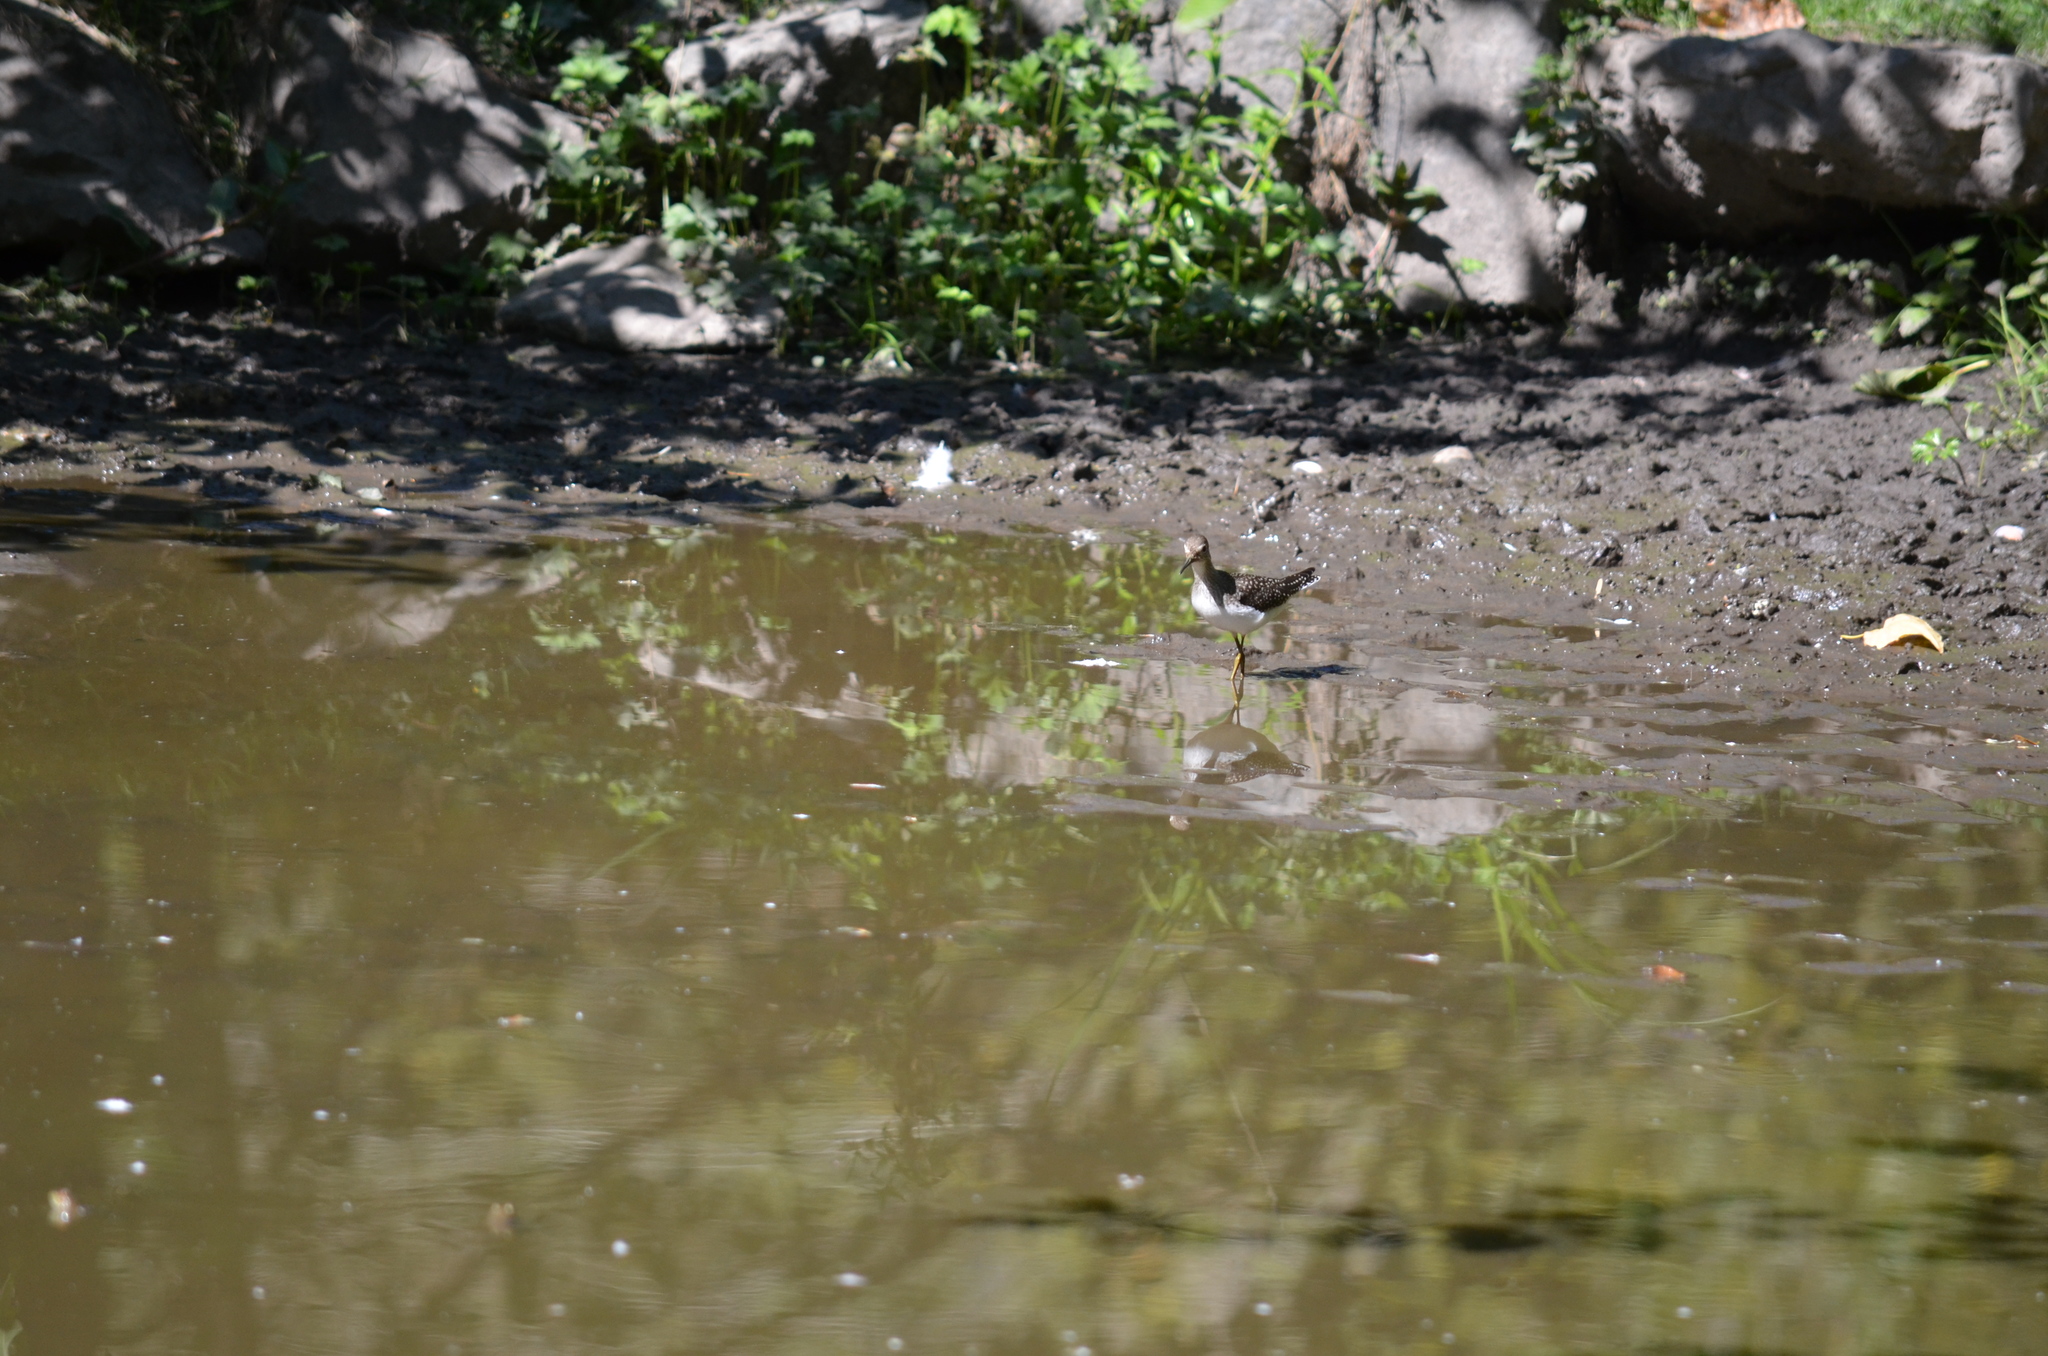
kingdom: Animalia
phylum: Chordata
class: Aves
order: Charadriiformes
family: Scolopacidae
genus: Tringa
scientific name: Tringa solitaria
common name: Solitary sandpiper
